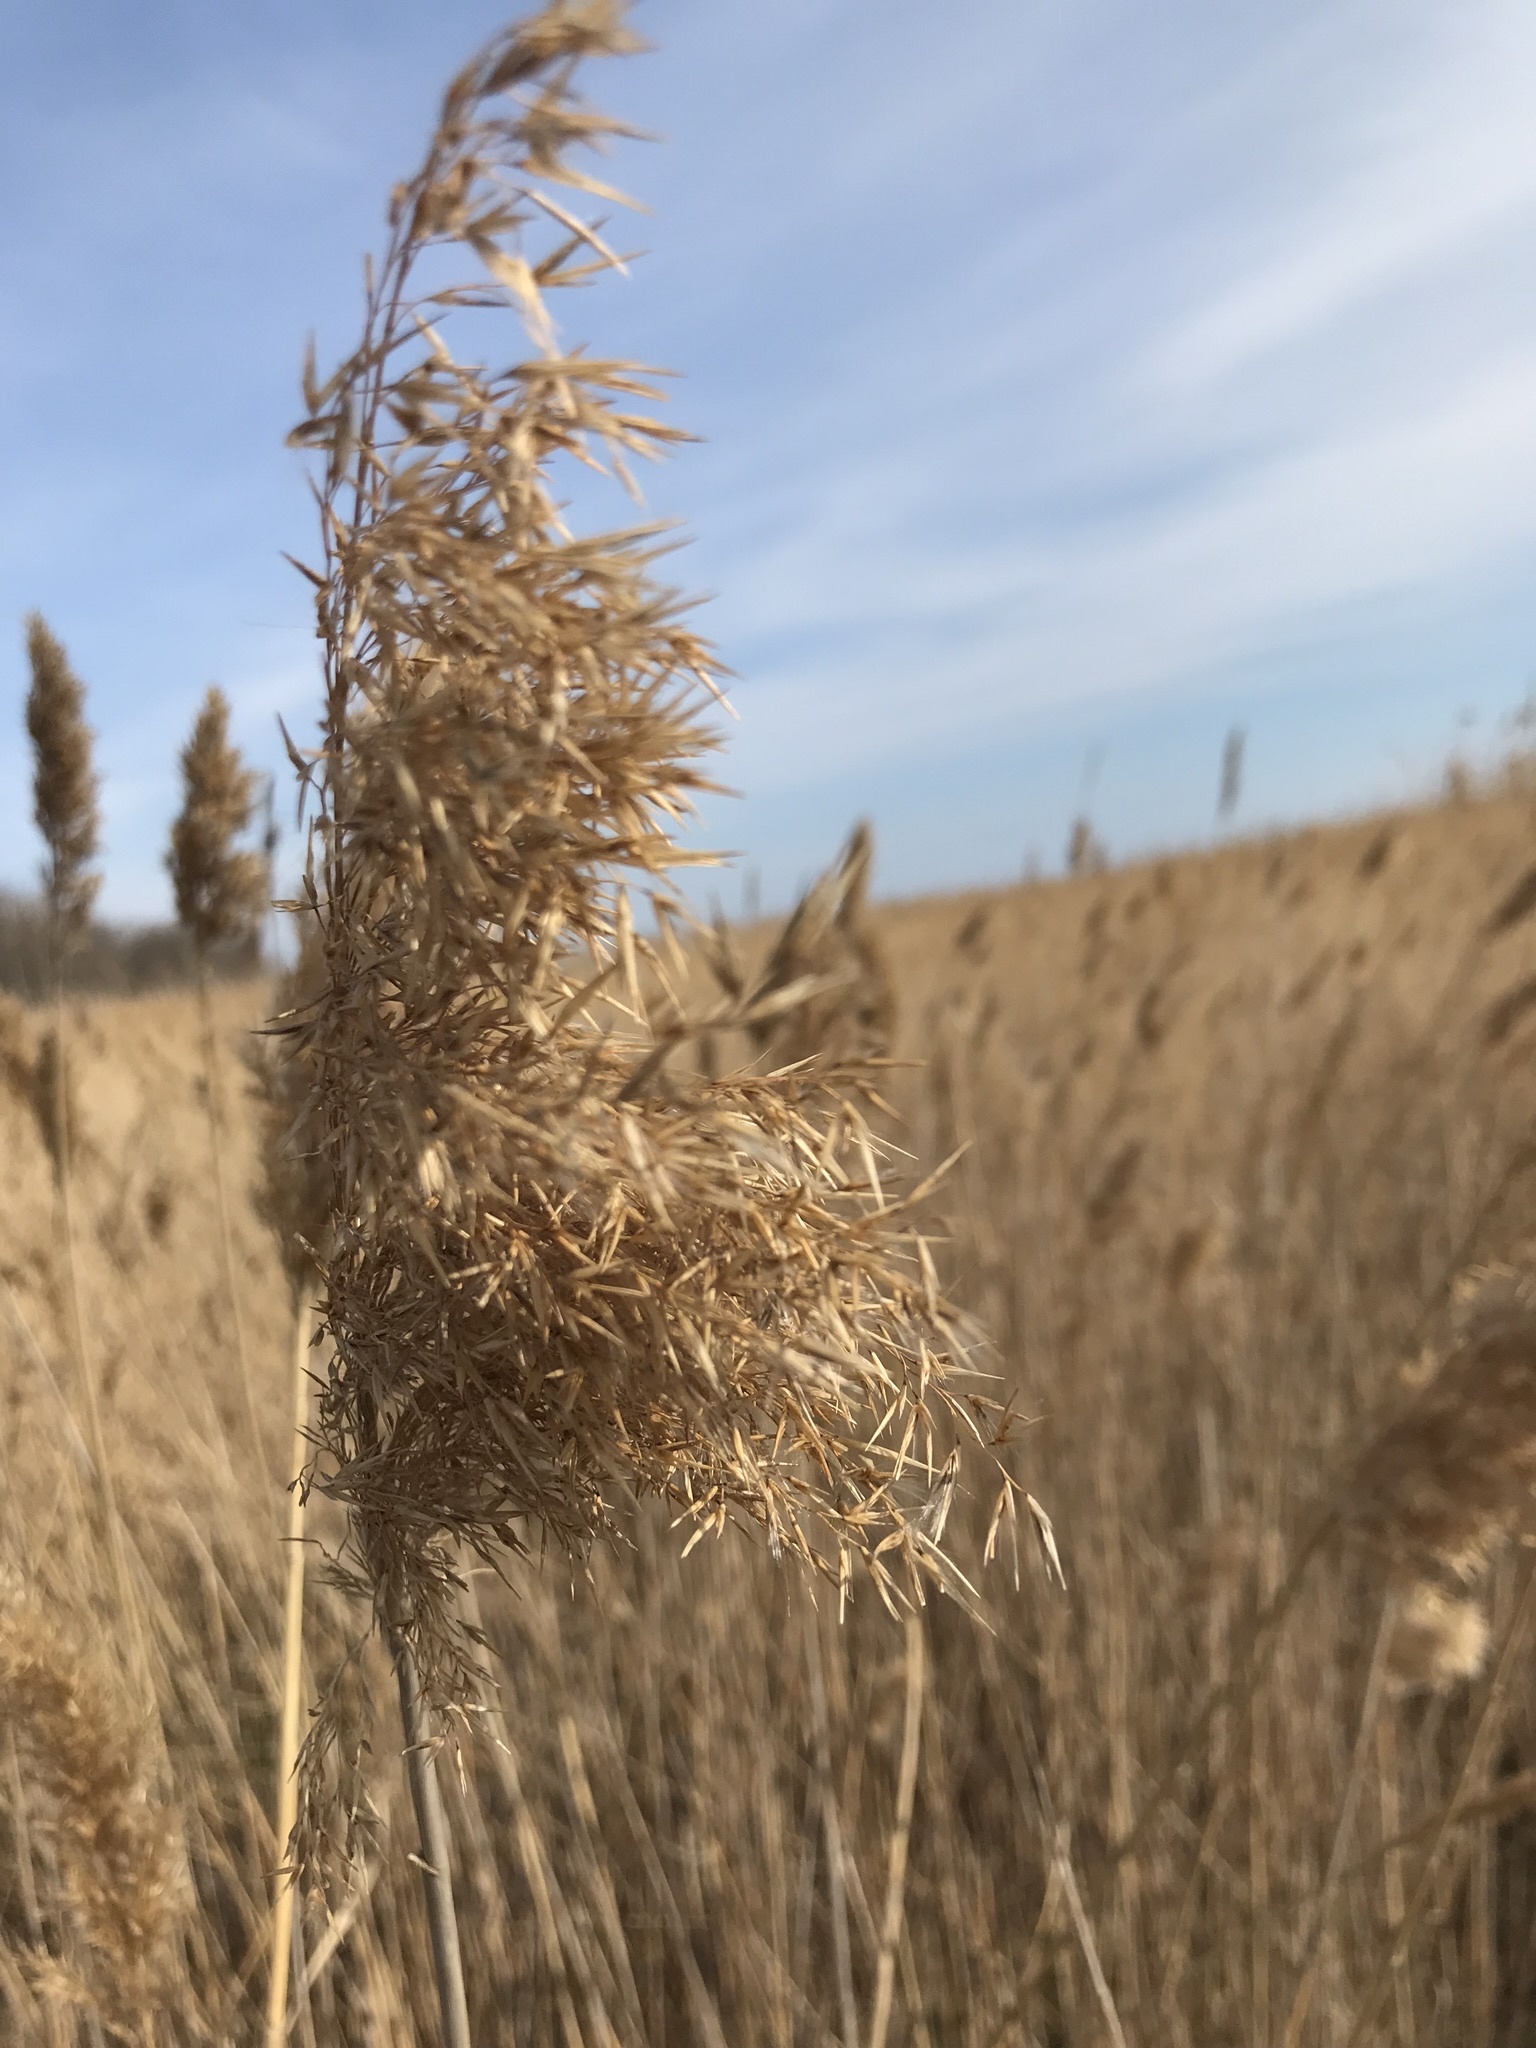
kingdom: Plantae
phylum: Tracheophyta
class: Liliopsida
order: Poales
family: Poaceae
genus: Phragmites
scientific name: Phragmites australis
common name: Common reed
